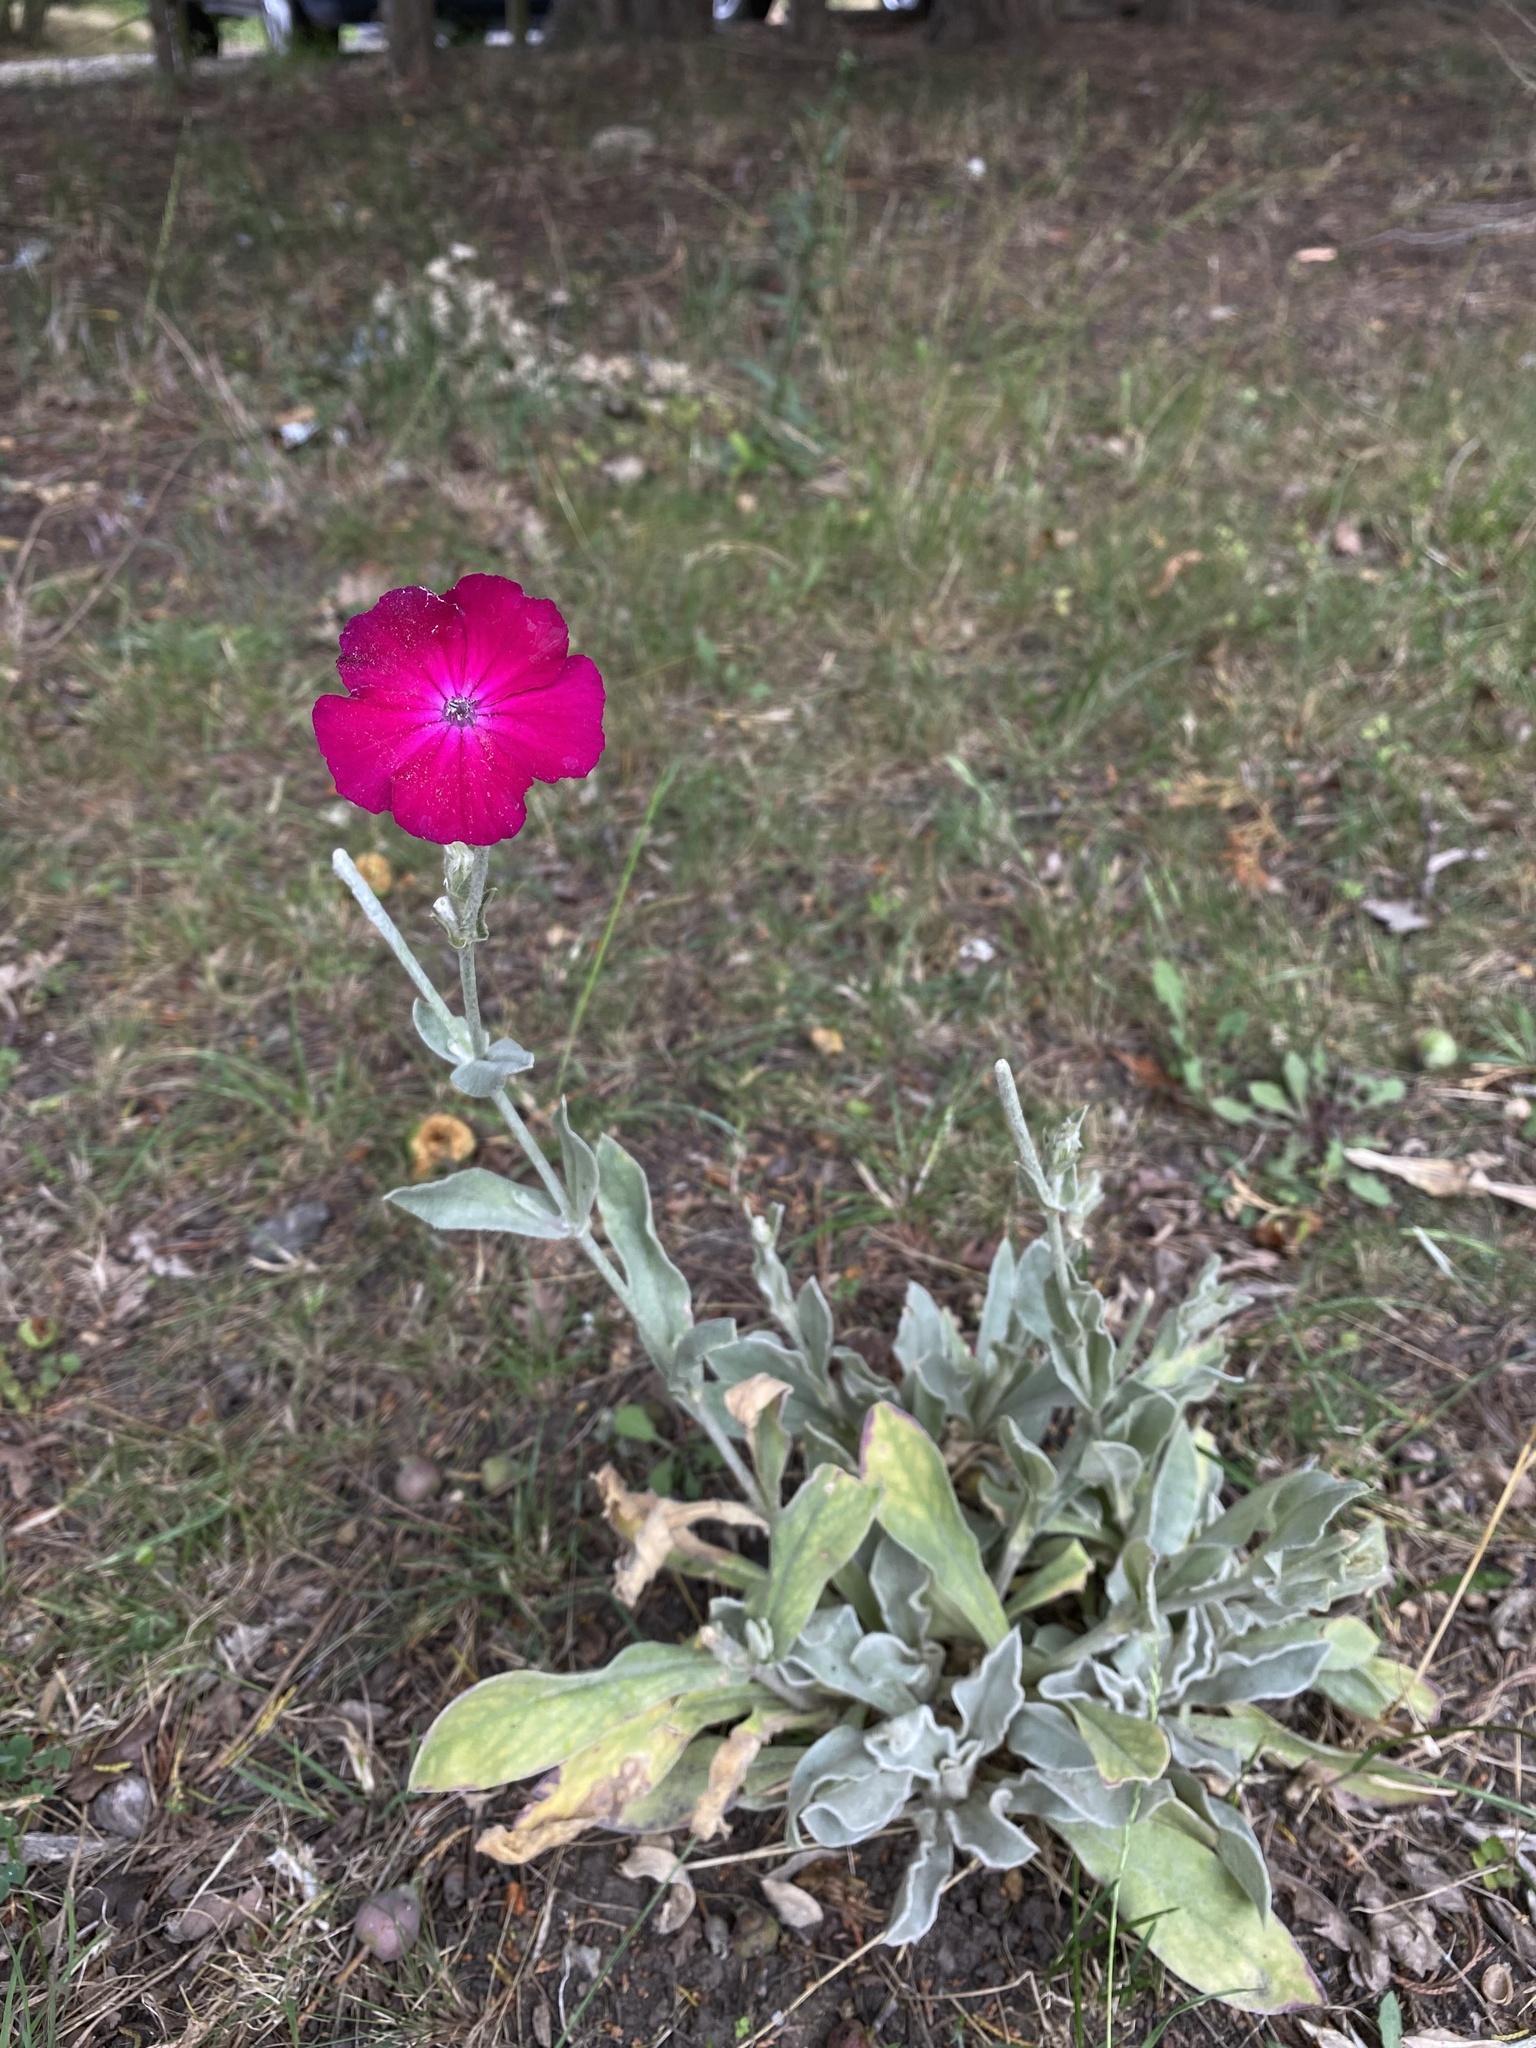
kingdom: Plantae
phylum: Tracheophyta
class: Magnoliopsida
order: Caryophyllales
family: Caryophyllaceae
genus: Silene
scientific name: Silene coronaria
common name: Rose campion
